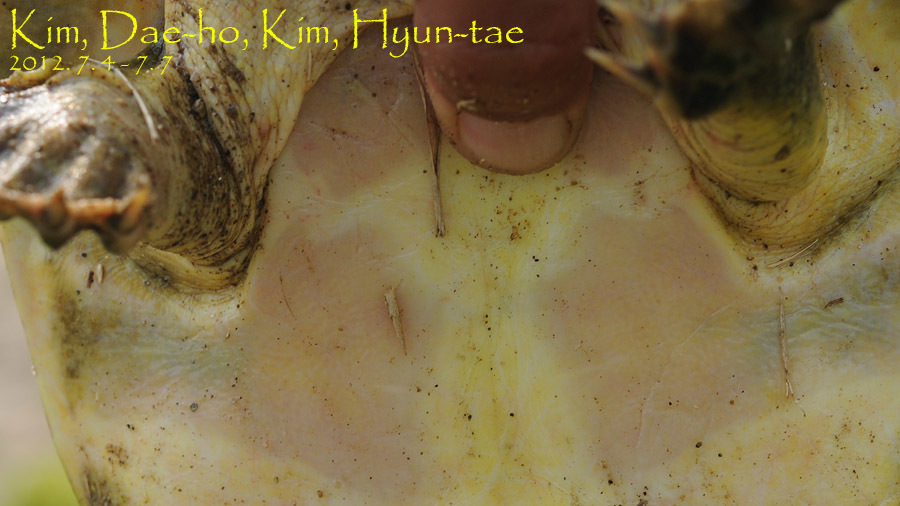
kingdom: Animalia
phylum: Chordata
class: Testudines
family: Trionychidae
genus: Pelodiscus
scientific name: Pelodiscus maackii
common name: Northern chinese softshell turtle
